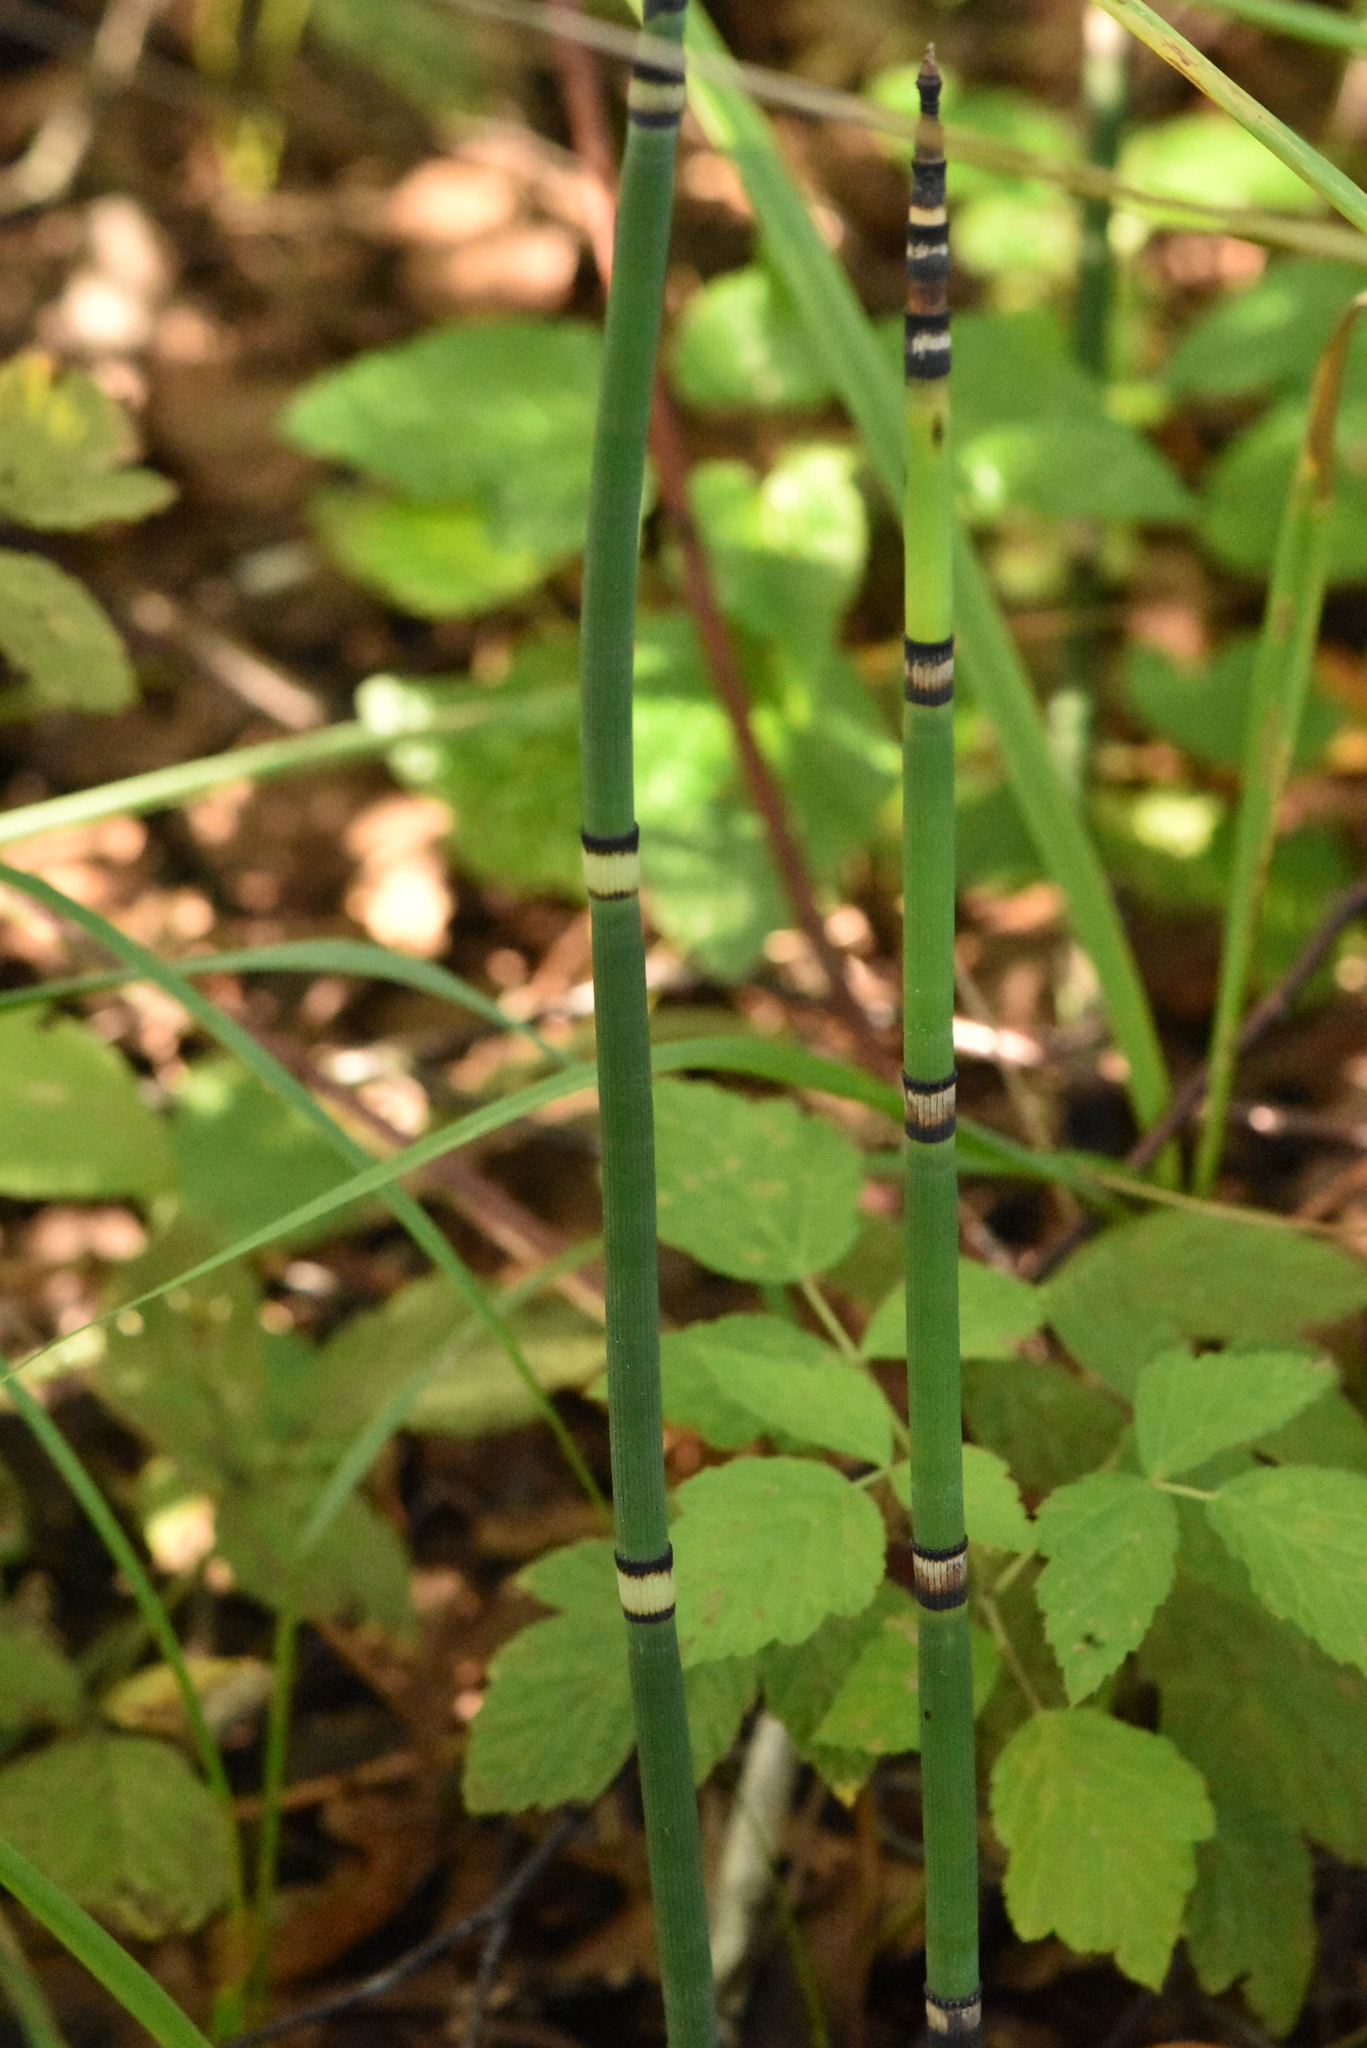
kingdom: Plantae
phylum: Tracheophyta
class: Polypodiopsida
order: Equisetales
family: Equisetaceae
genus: Equisetum
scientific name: Equisetum hyemale
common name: Rough horsetail
